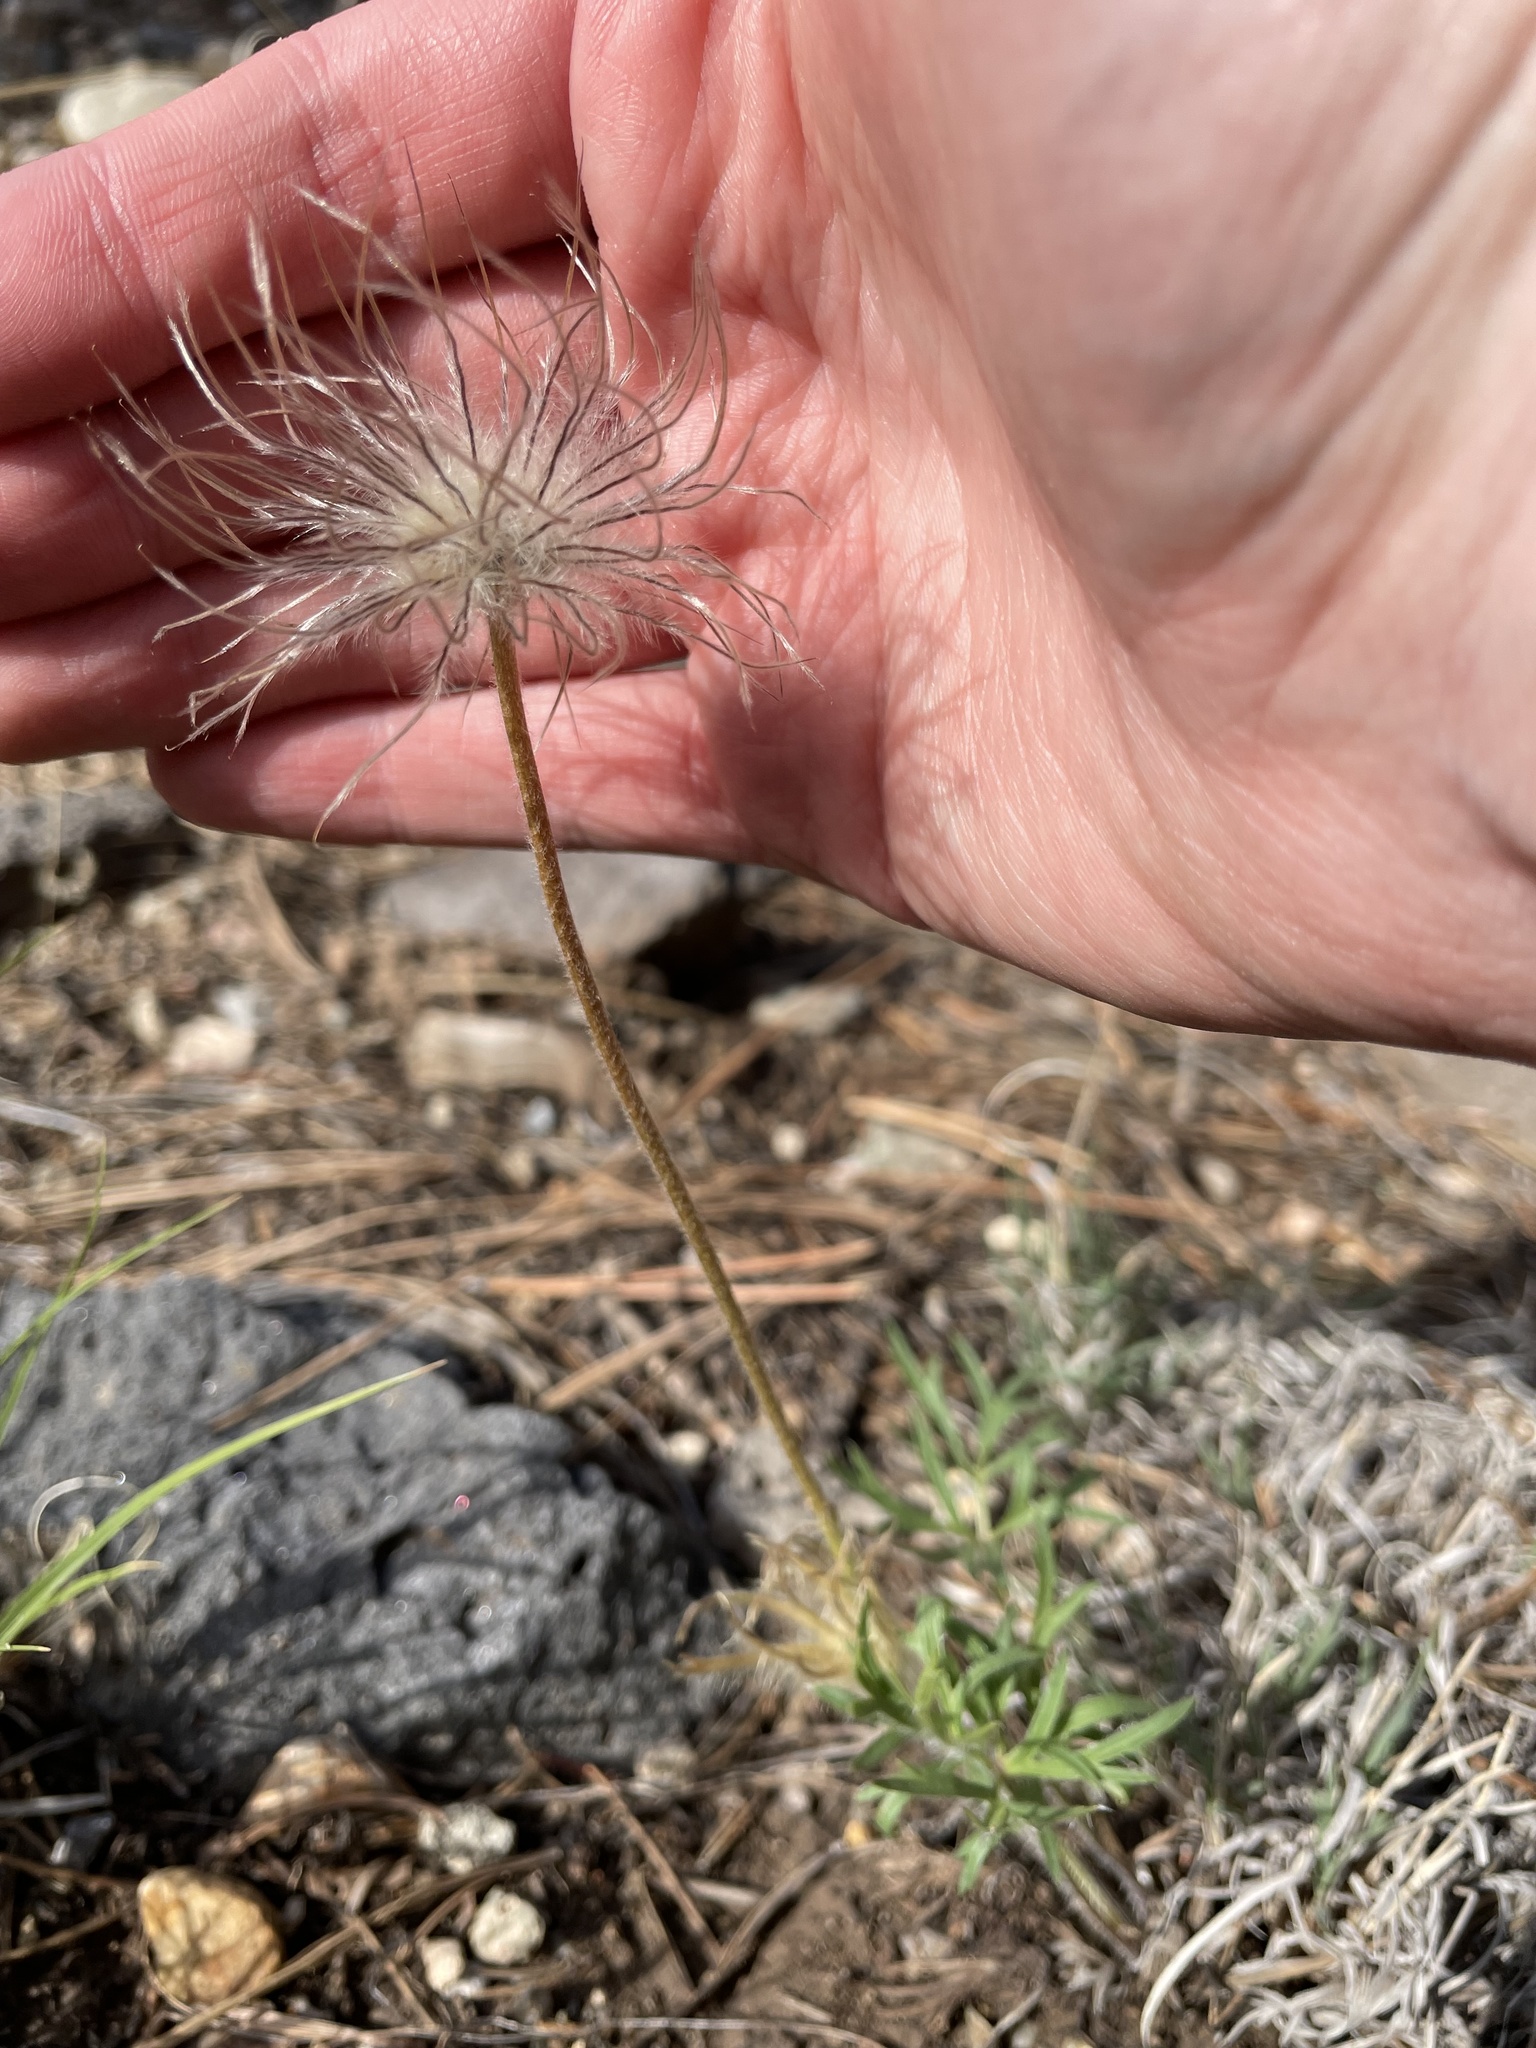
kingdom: Plantae
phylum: Tracheophyta
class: Magnoliopsida
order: Ranunculales
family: Ranunculaceae
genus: Pulsatilla
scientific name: Pulsatilla nuttalliana
